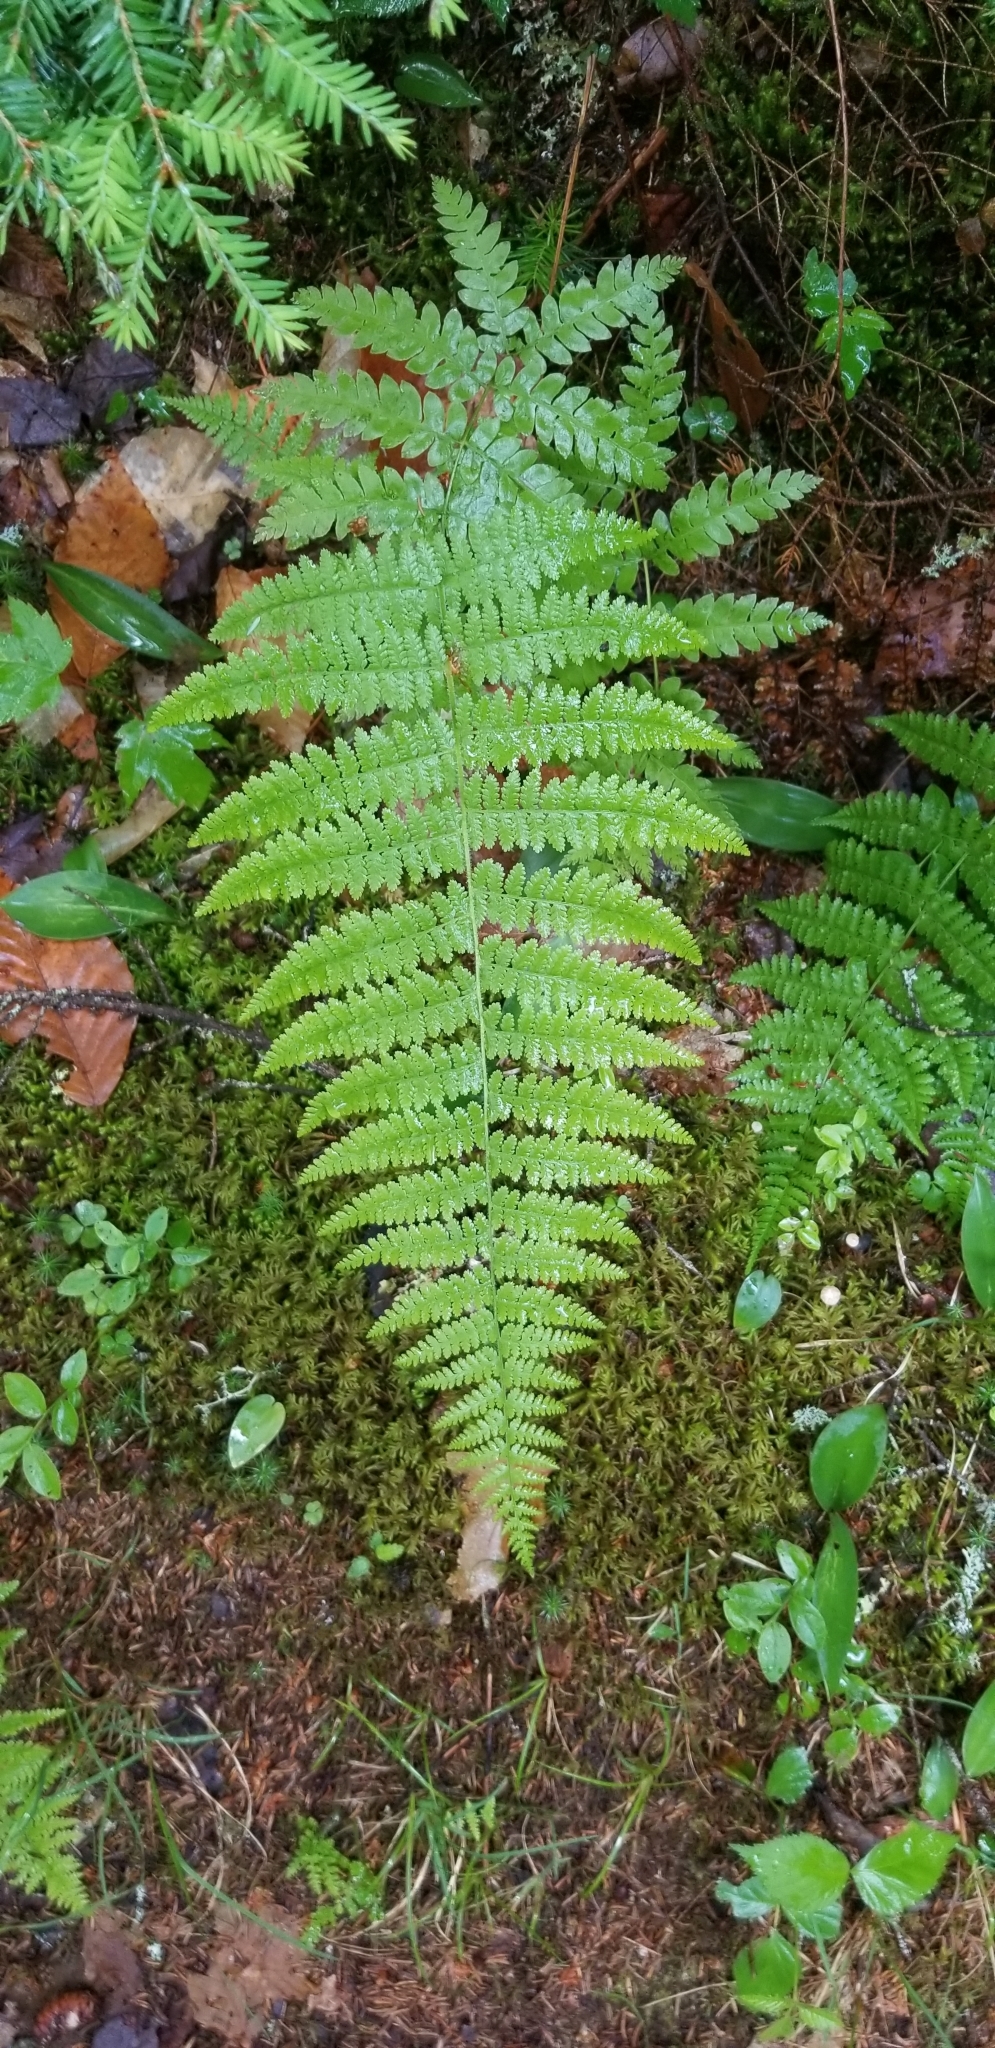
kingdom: Plantae
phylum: Tracheophyta
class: Polypodiopsida
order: Polypodiales
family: Dennstaedtiaceae
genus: Sitobolium
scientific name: Sitobolium punctilobum
